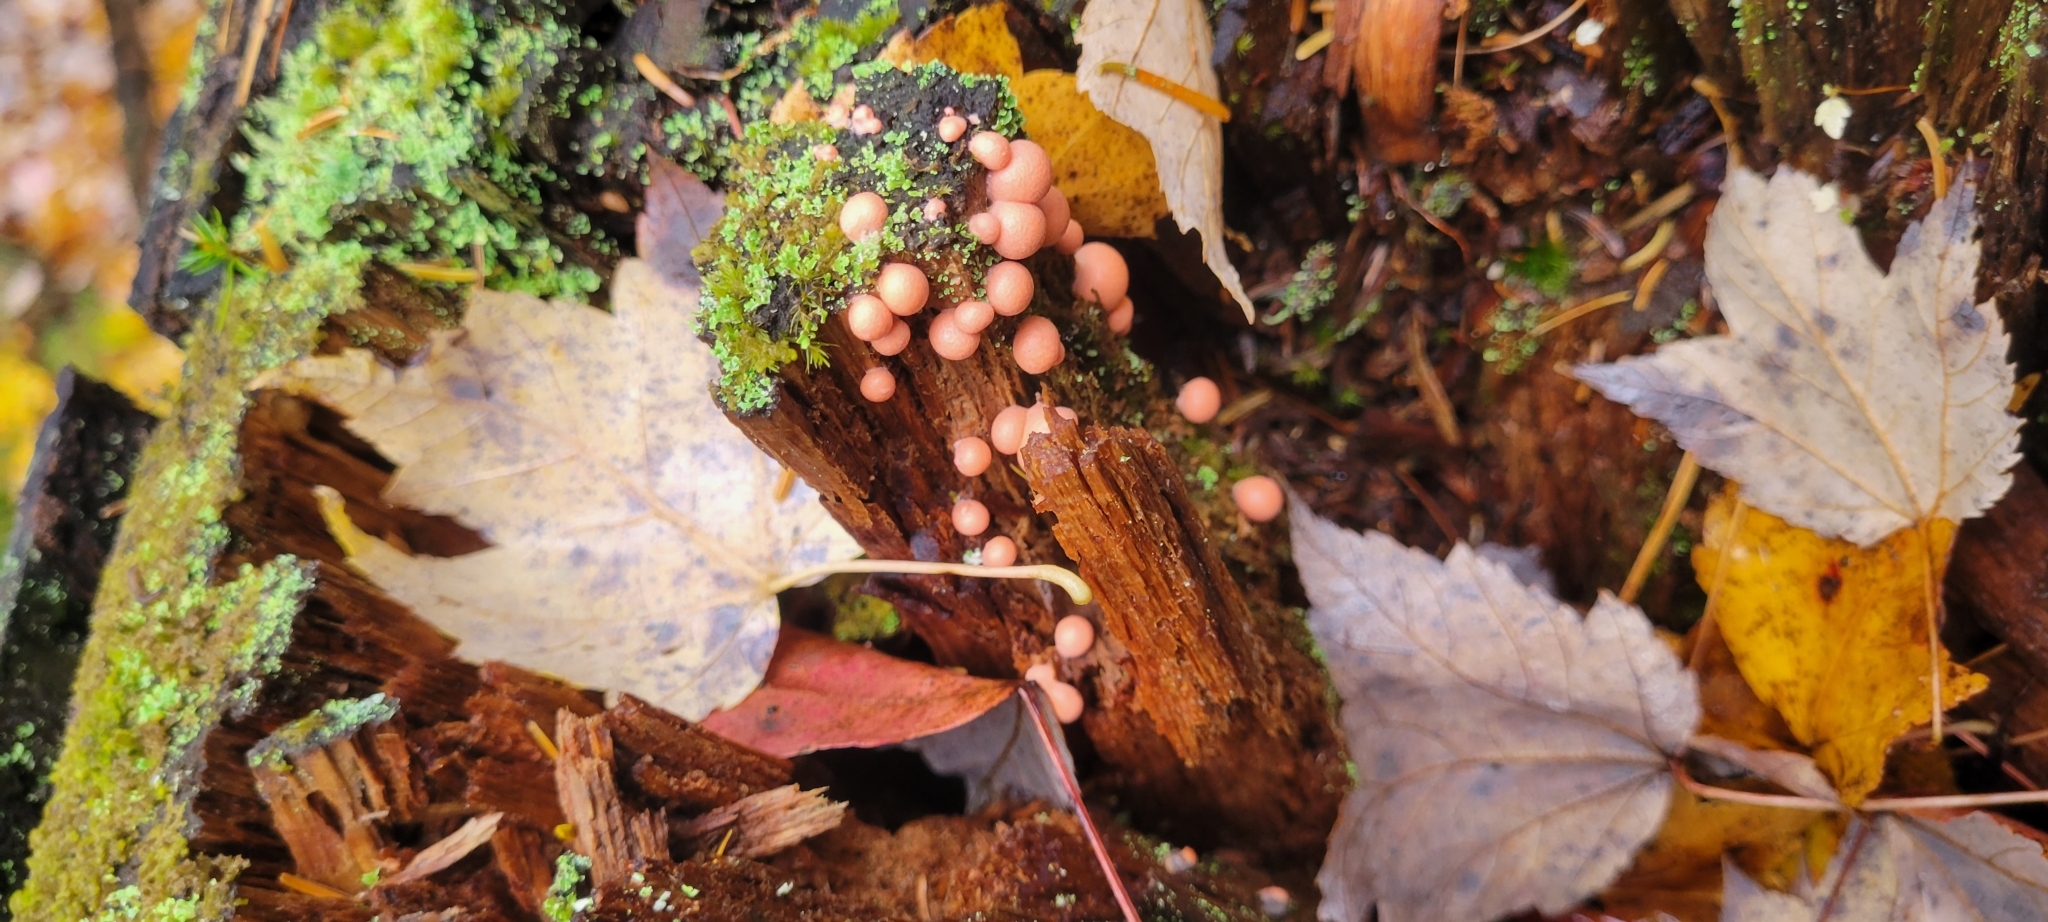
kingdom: Protozoa
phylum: Mycetozoa
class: Myxomycetes
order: Cribrariales
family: Tubiferaceae
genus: Lycogala
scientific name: Lycogala epidendrum
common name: Wolf's milk
